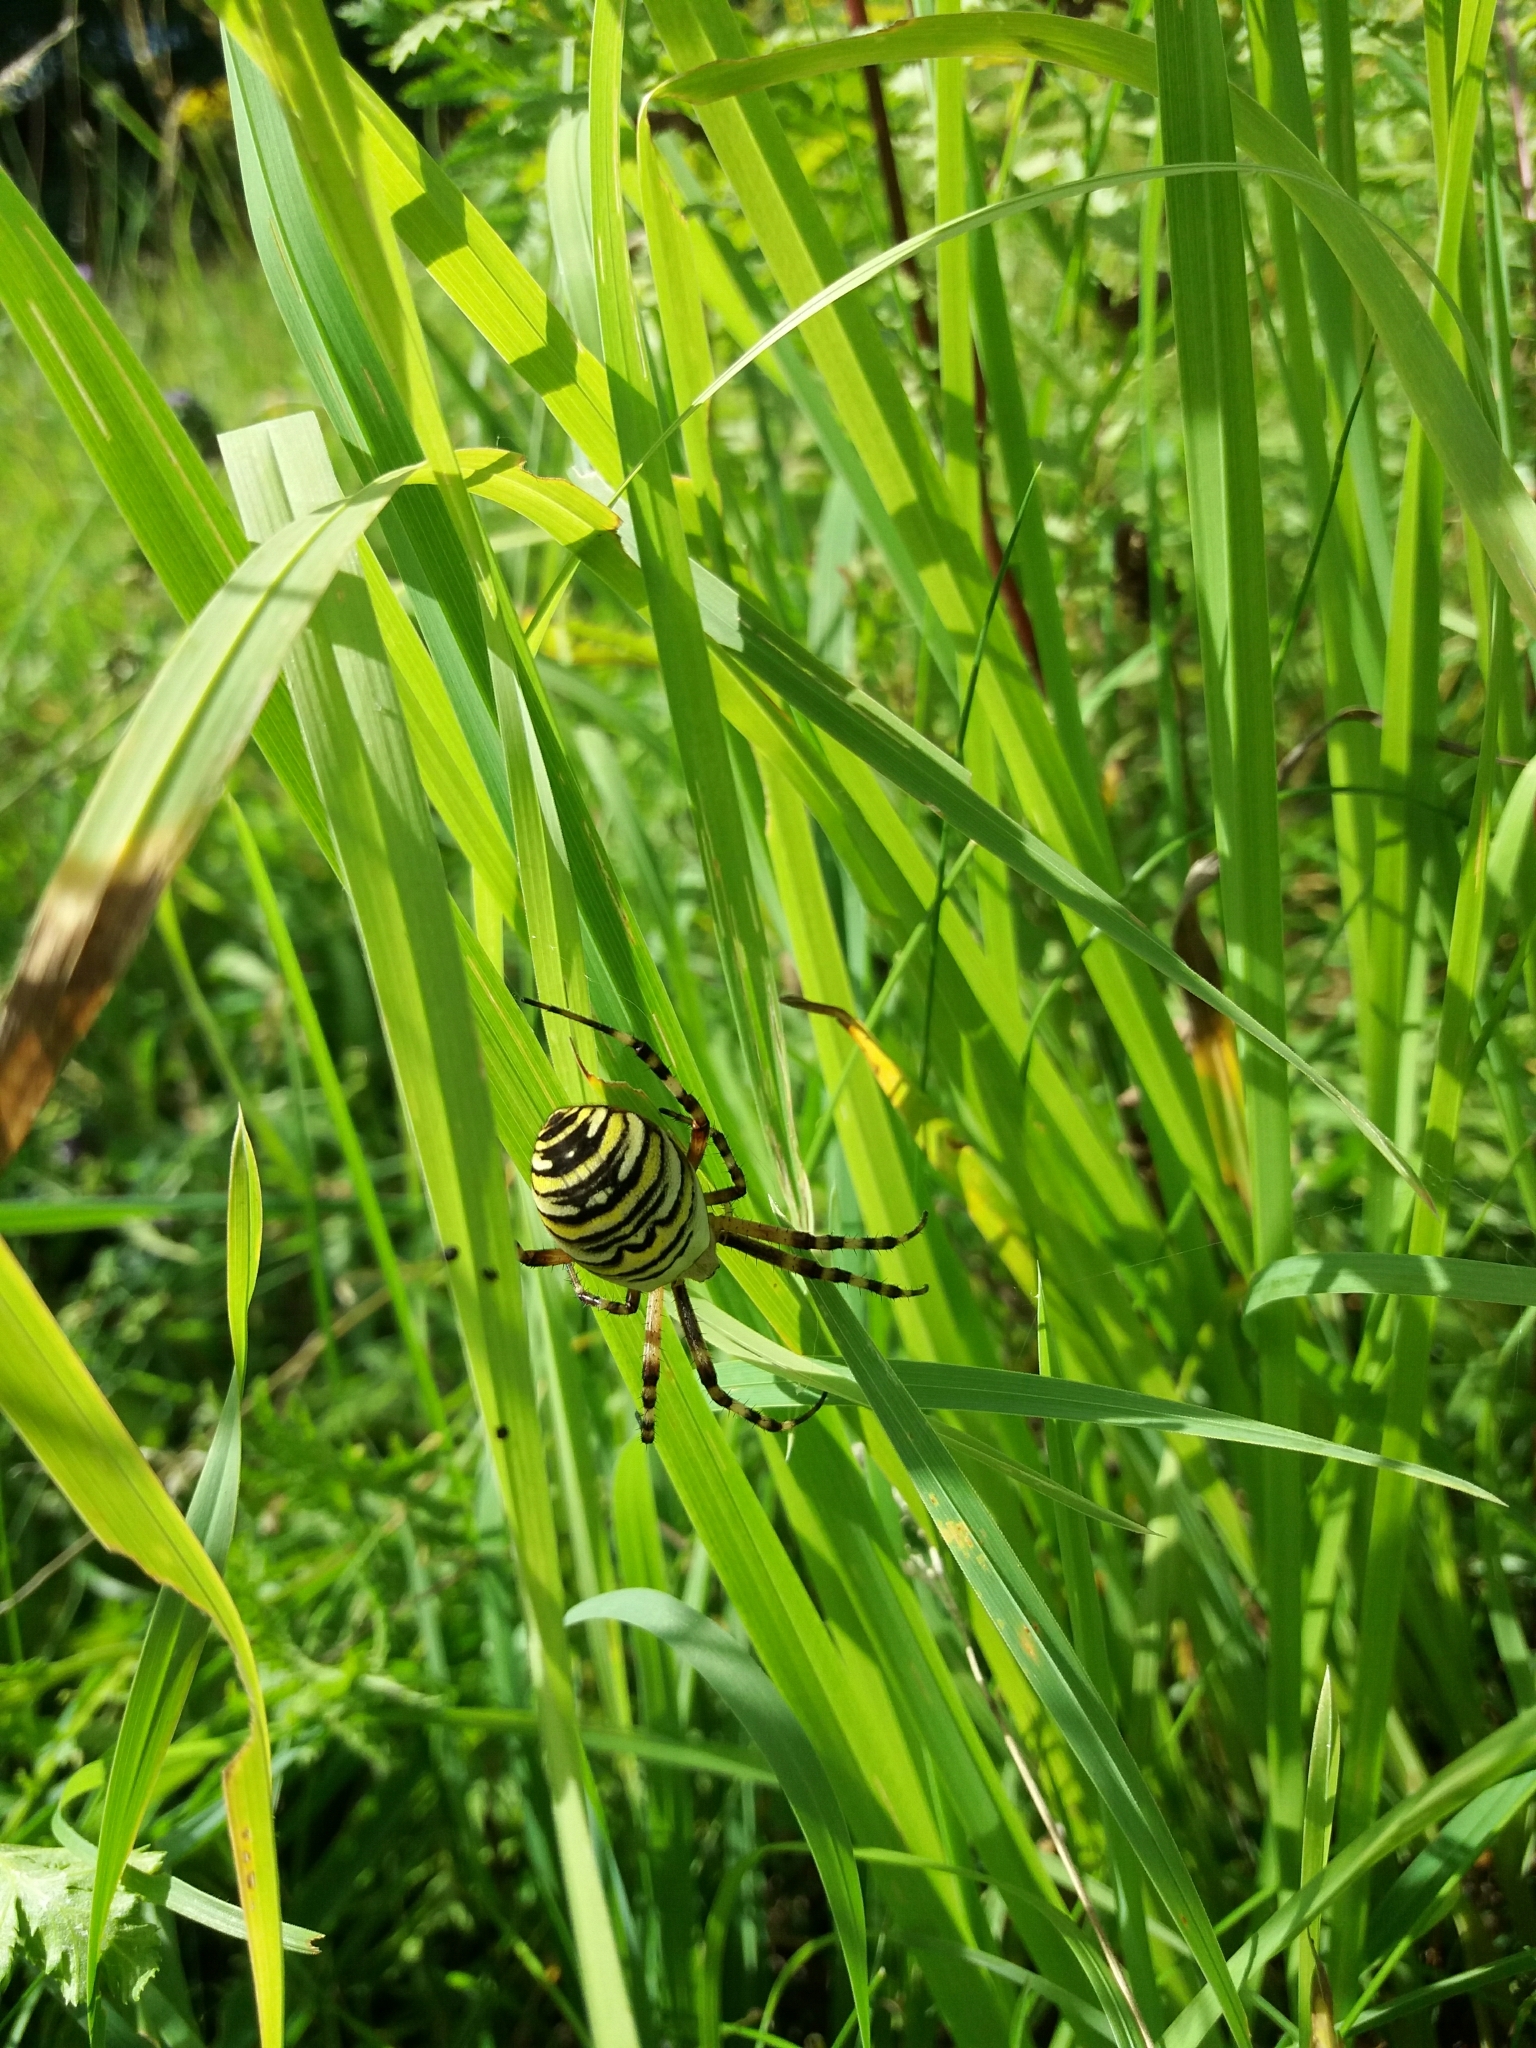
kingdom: Animalia
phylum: Arthropoda
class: Arachnida
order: Araneae
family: Araneidae
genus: Argiope
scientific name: Argiope bruennichi
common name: Wasp spider
